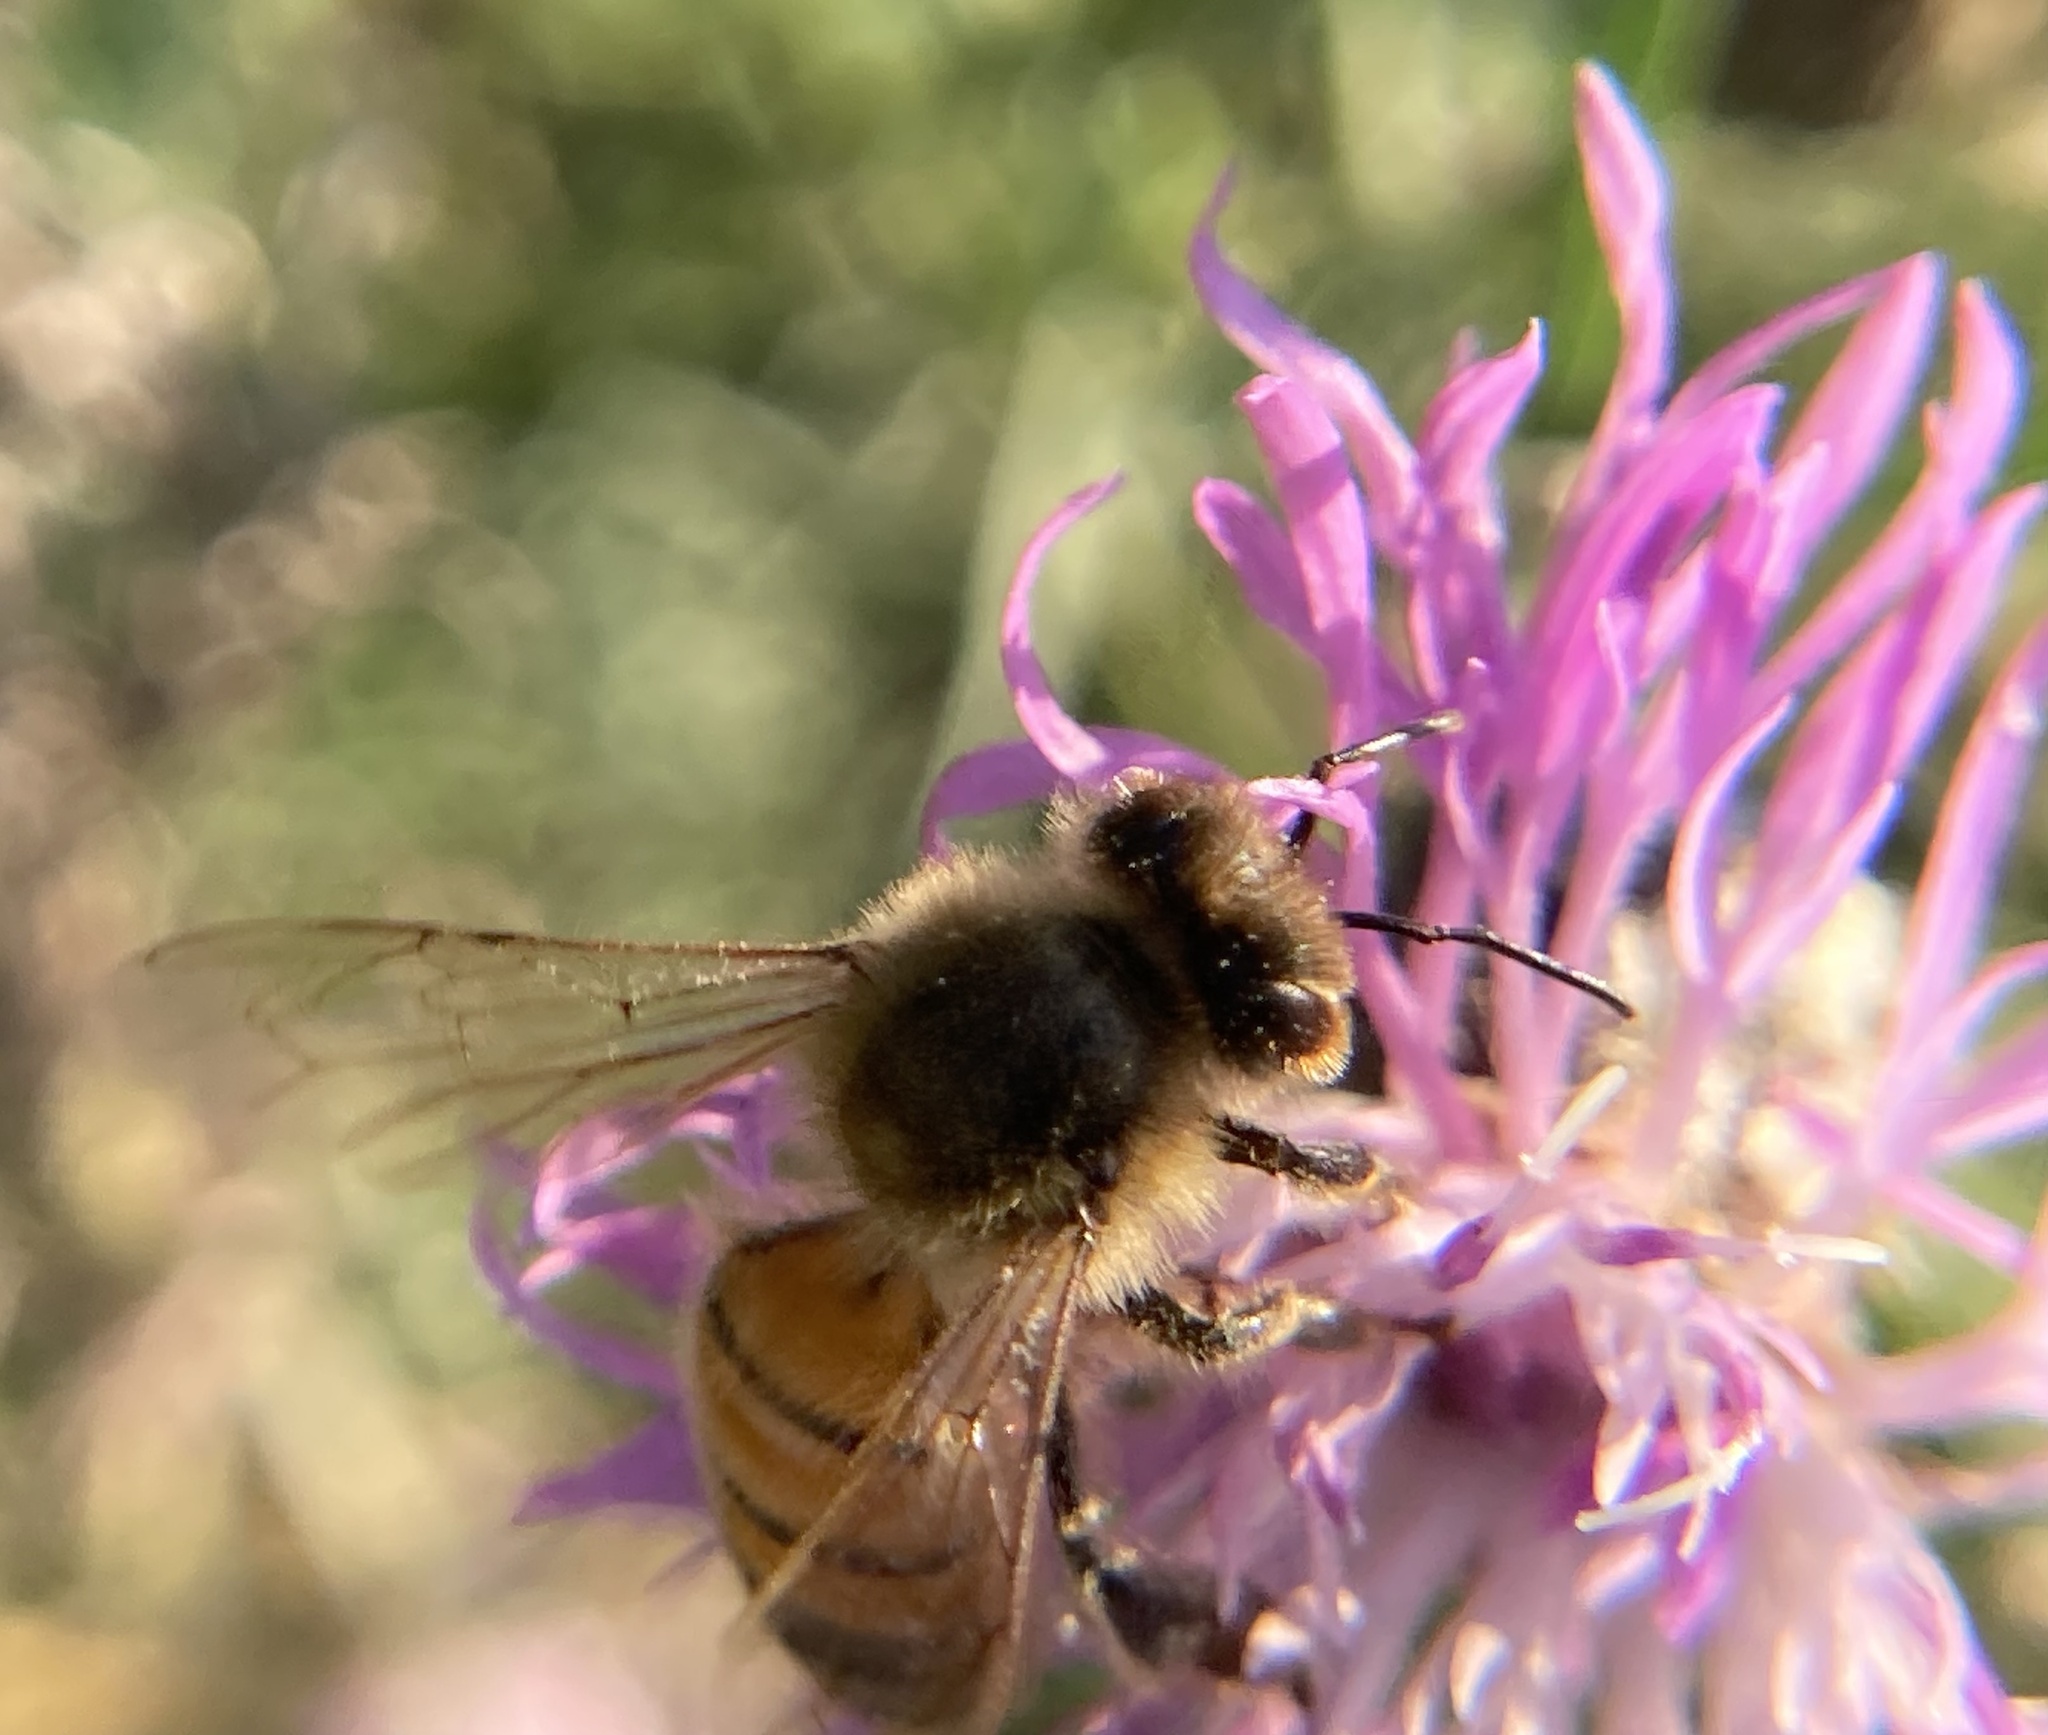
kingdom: Animalia
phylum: Arthropoda
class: Insecta
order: Hymenoptera
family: Apidae
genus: Apis
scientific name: Apis mellifera
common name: Honey bee
